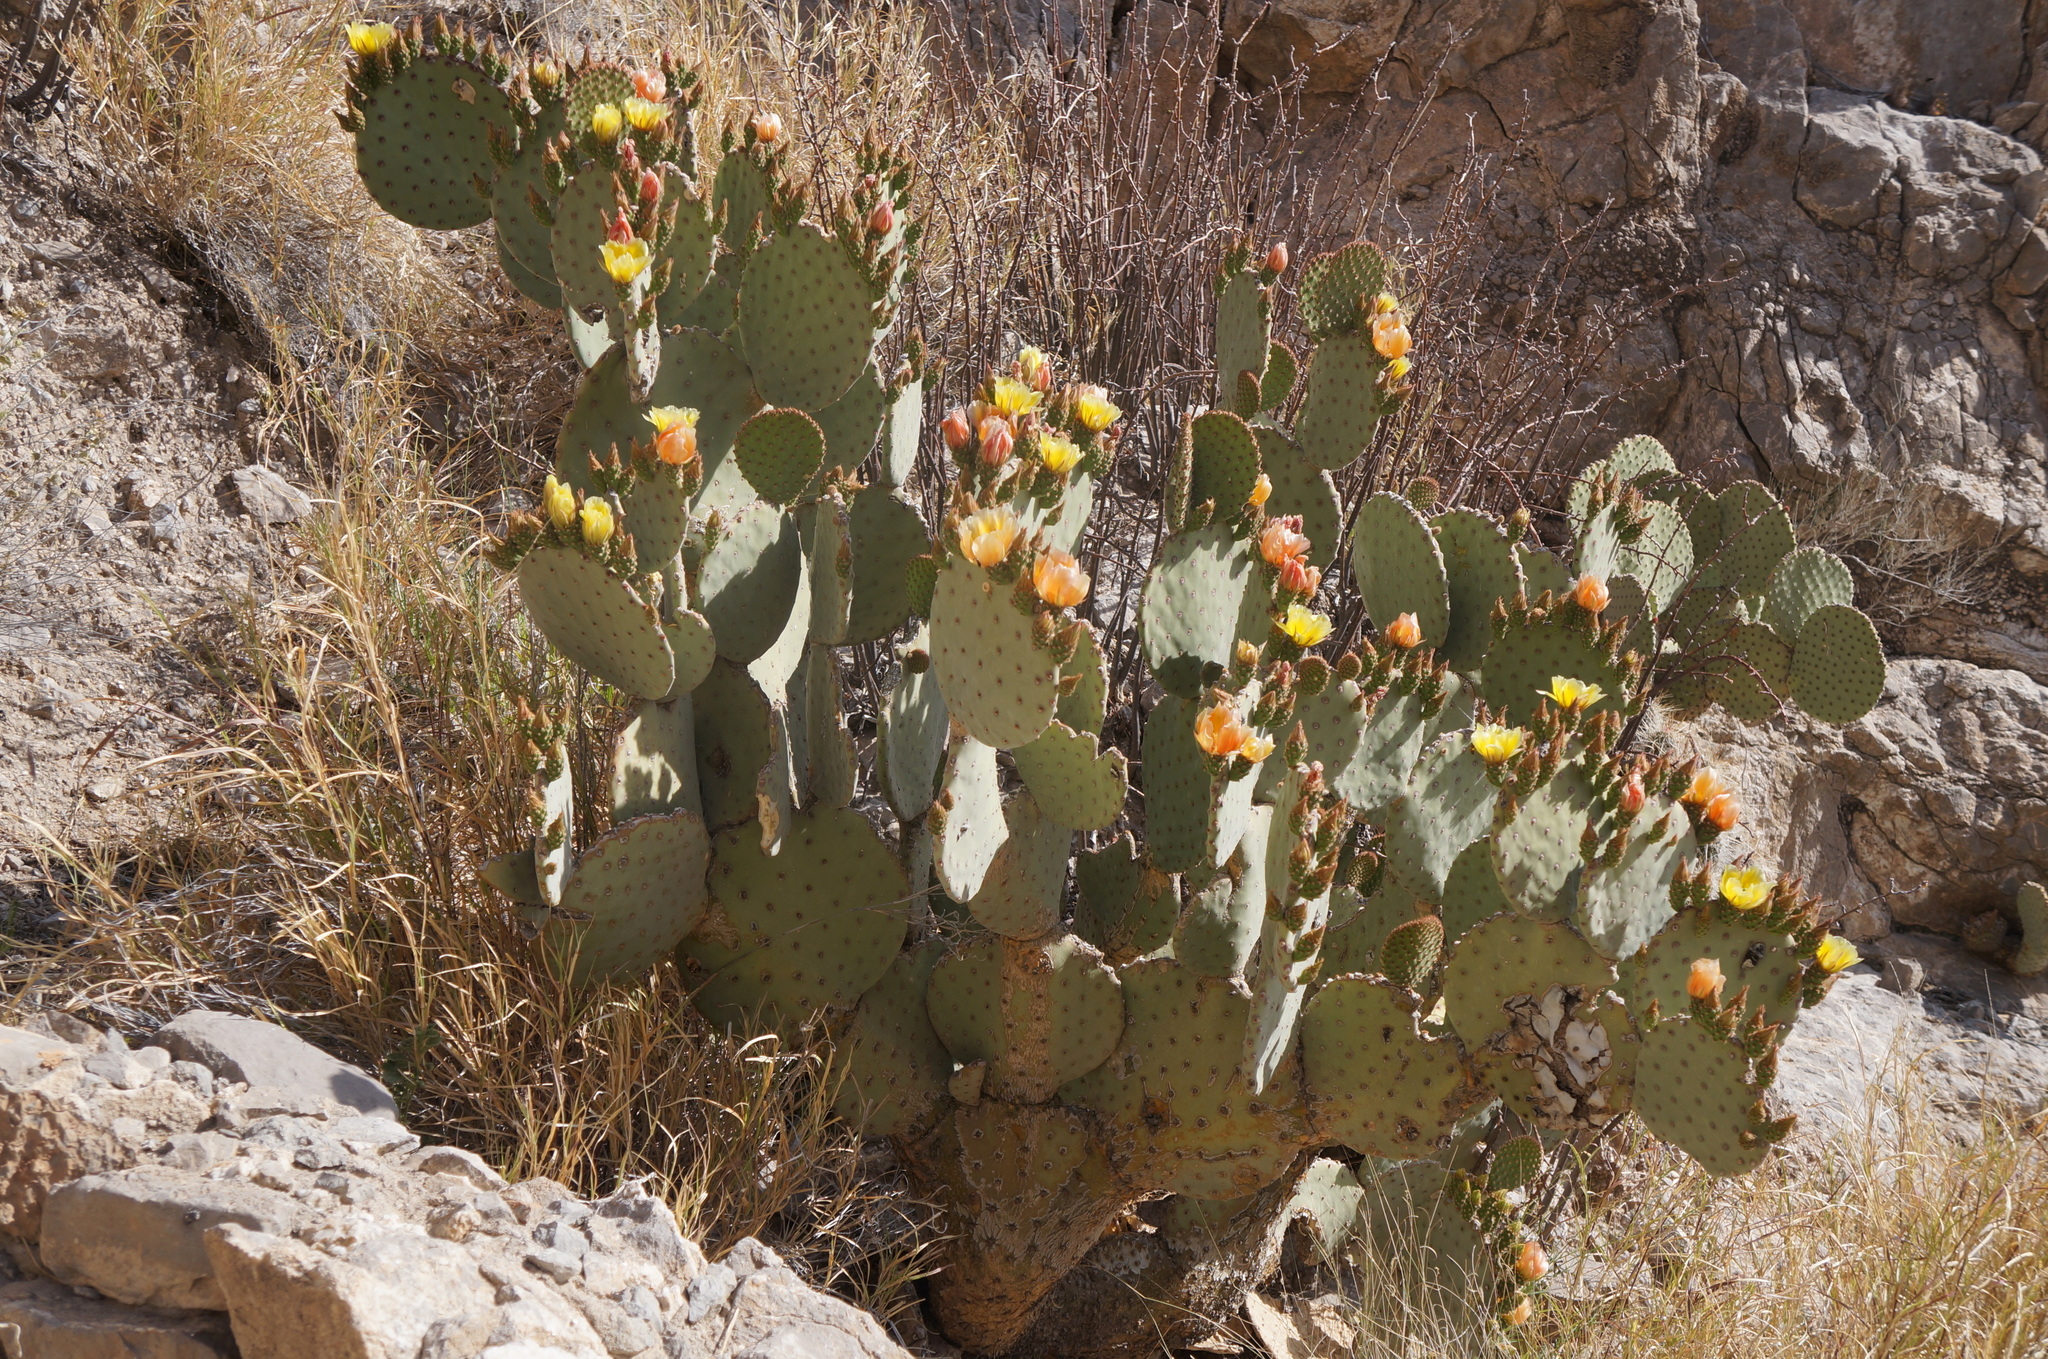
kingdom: Plantae
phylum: Tracheophyta
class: Magnoliopsida
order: Caryophyllales
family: Cactaceae
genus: Opuntia
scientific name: Opuntia rufida
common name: Blind pricklypear
